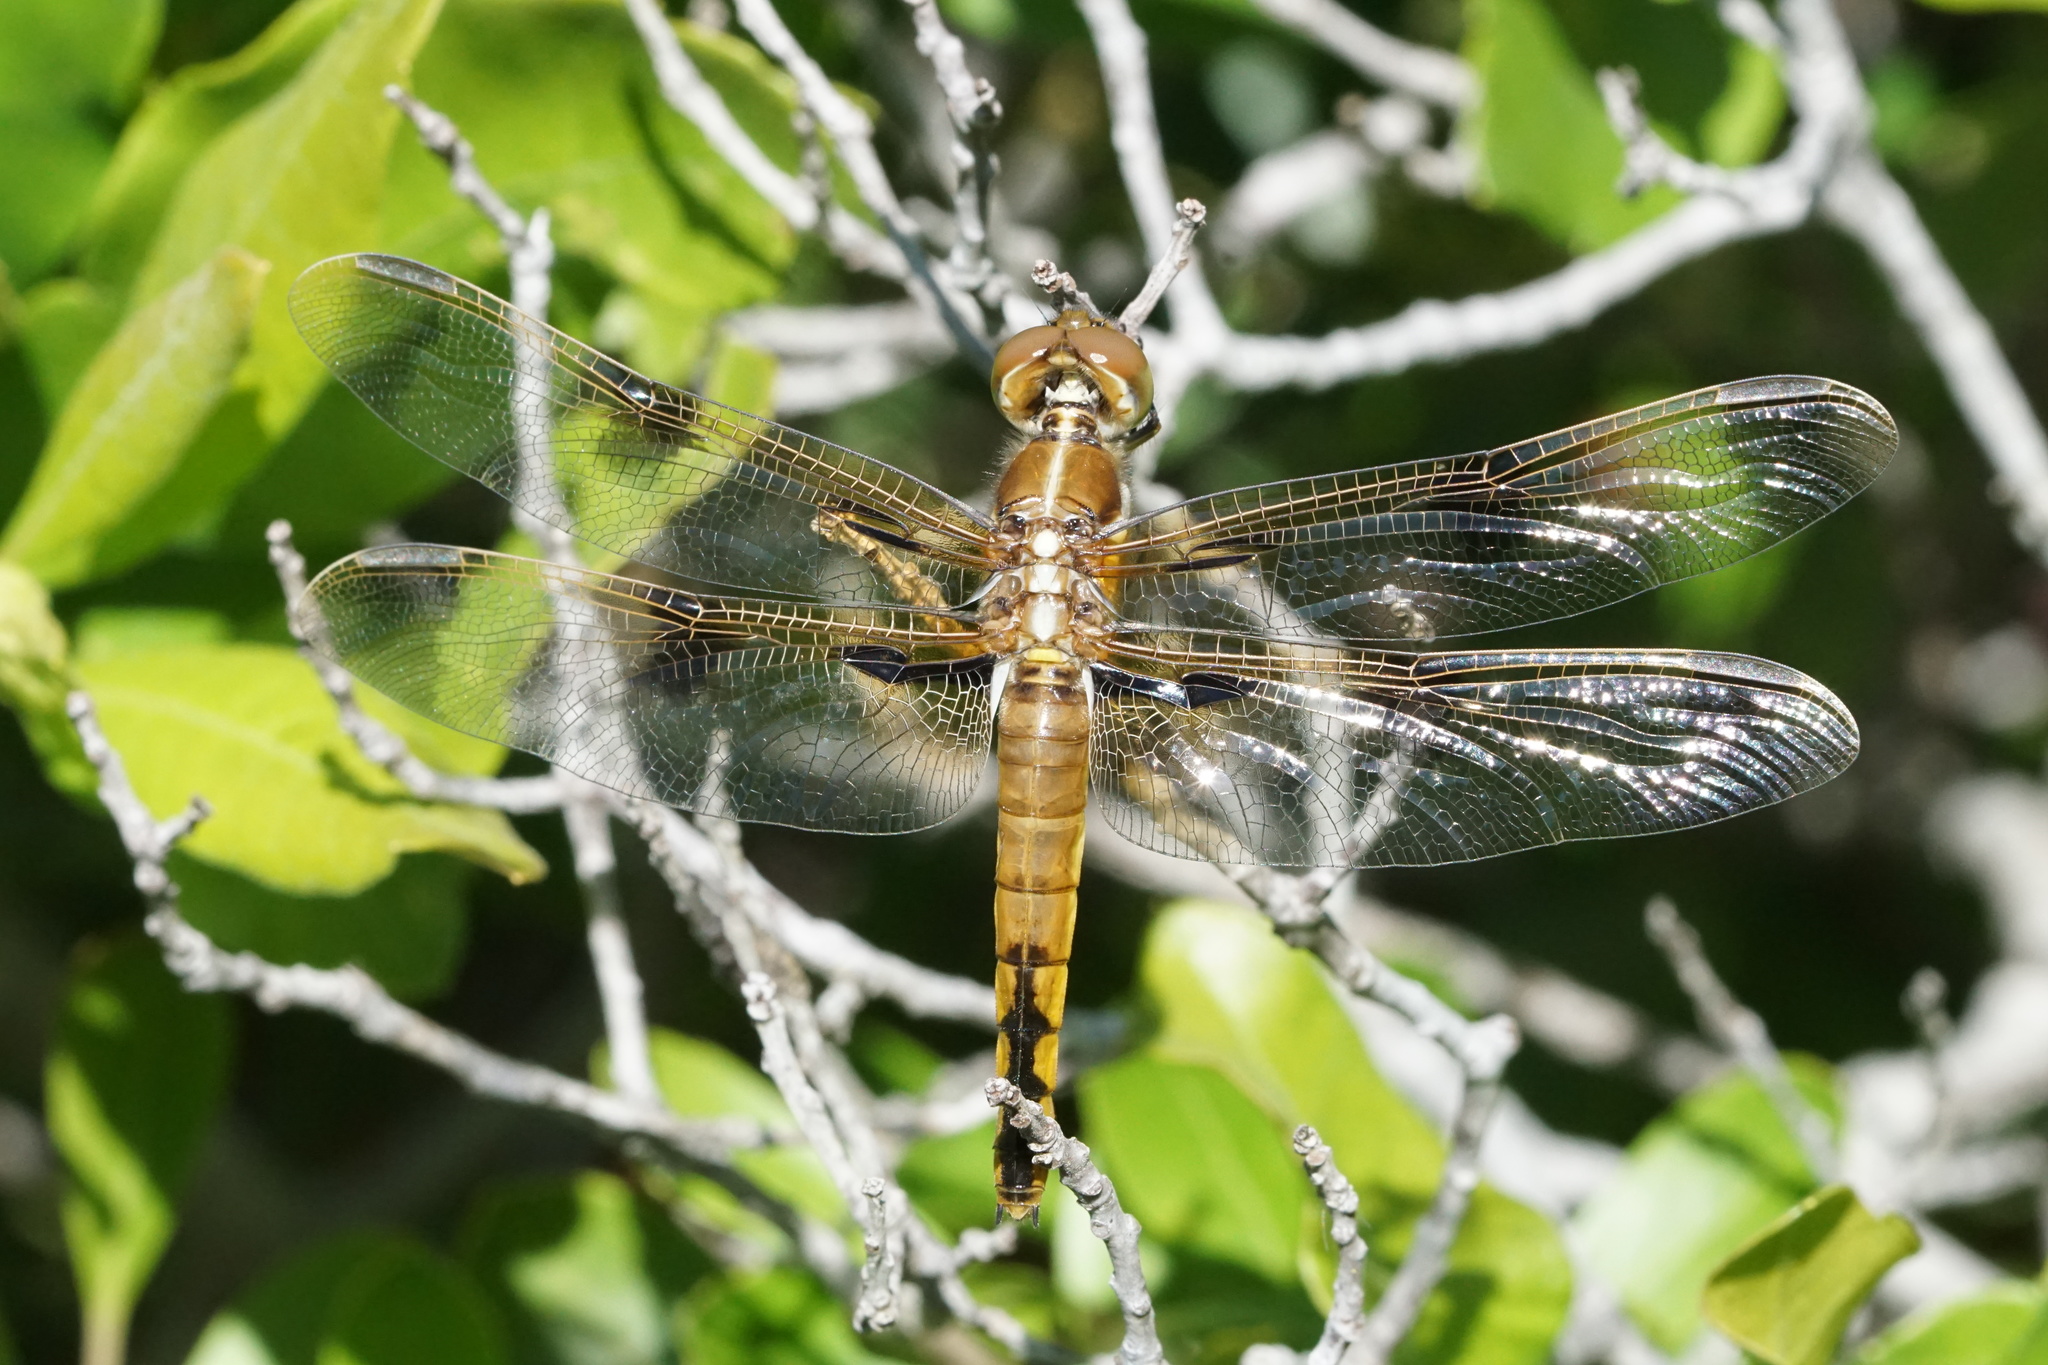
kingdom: Animalia
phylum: Arthropoda
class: Insecta
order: Odonata
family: Libellulidae
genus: Libellula
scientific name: Libellula semifasciata
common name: Painted skimmer
